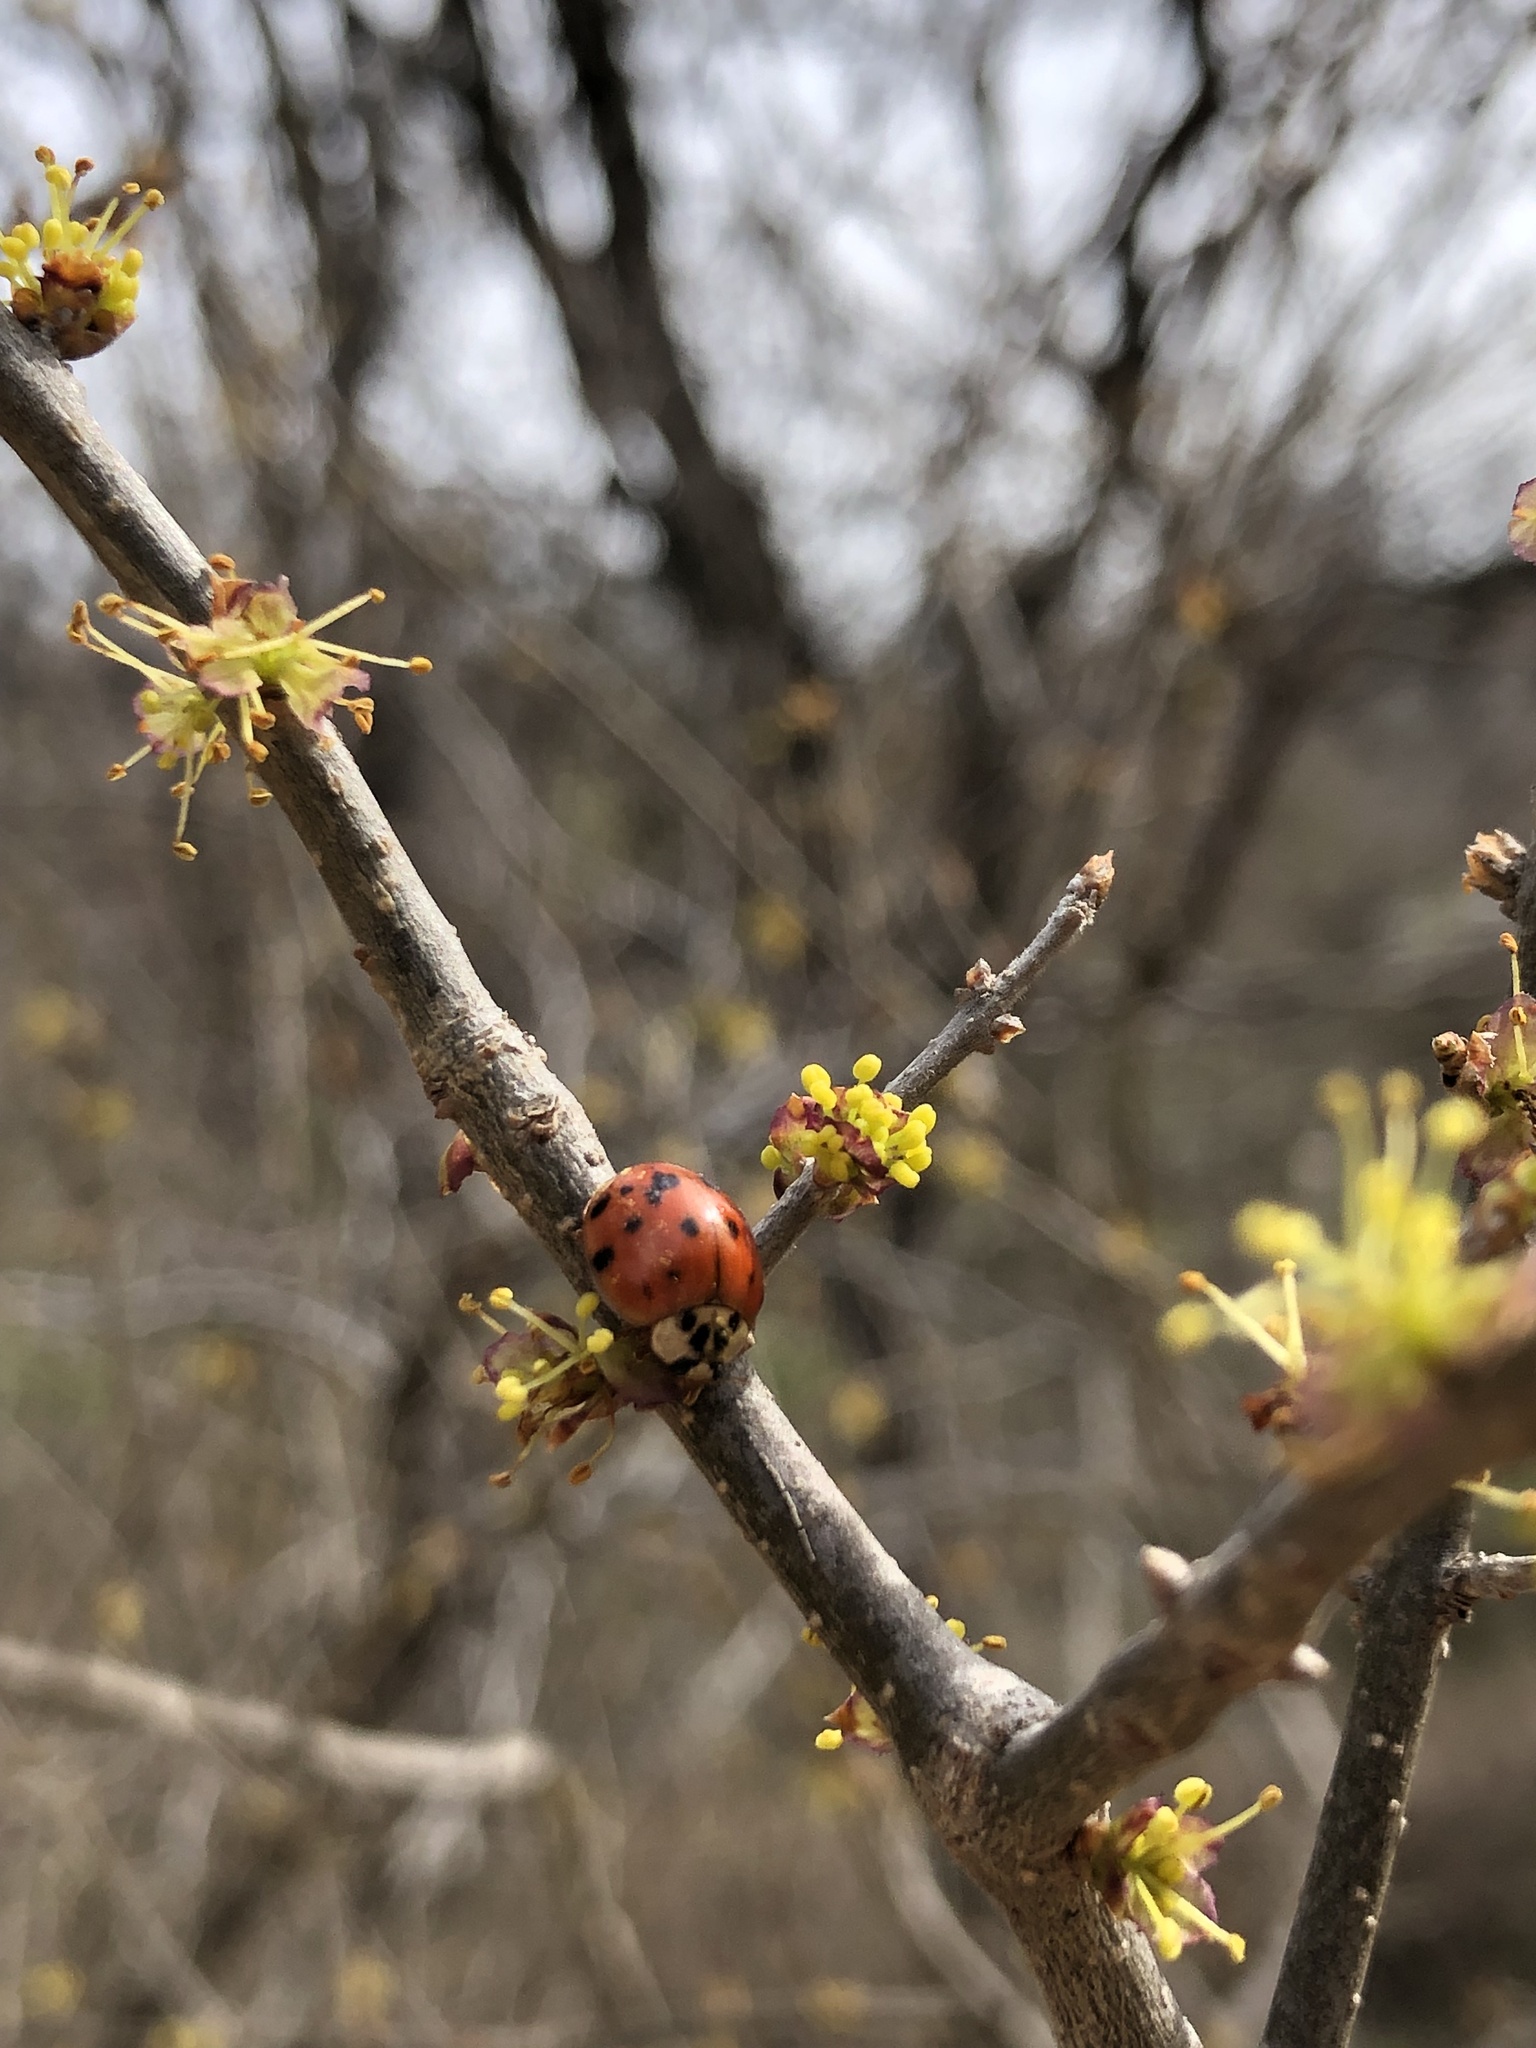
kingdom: Animalia
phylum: Arthropoda
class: Insecta
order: Coleoptera
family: Coccinellidae
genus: Harmonia
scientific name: Harmonia axyridis
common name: Harlequin ladybird
